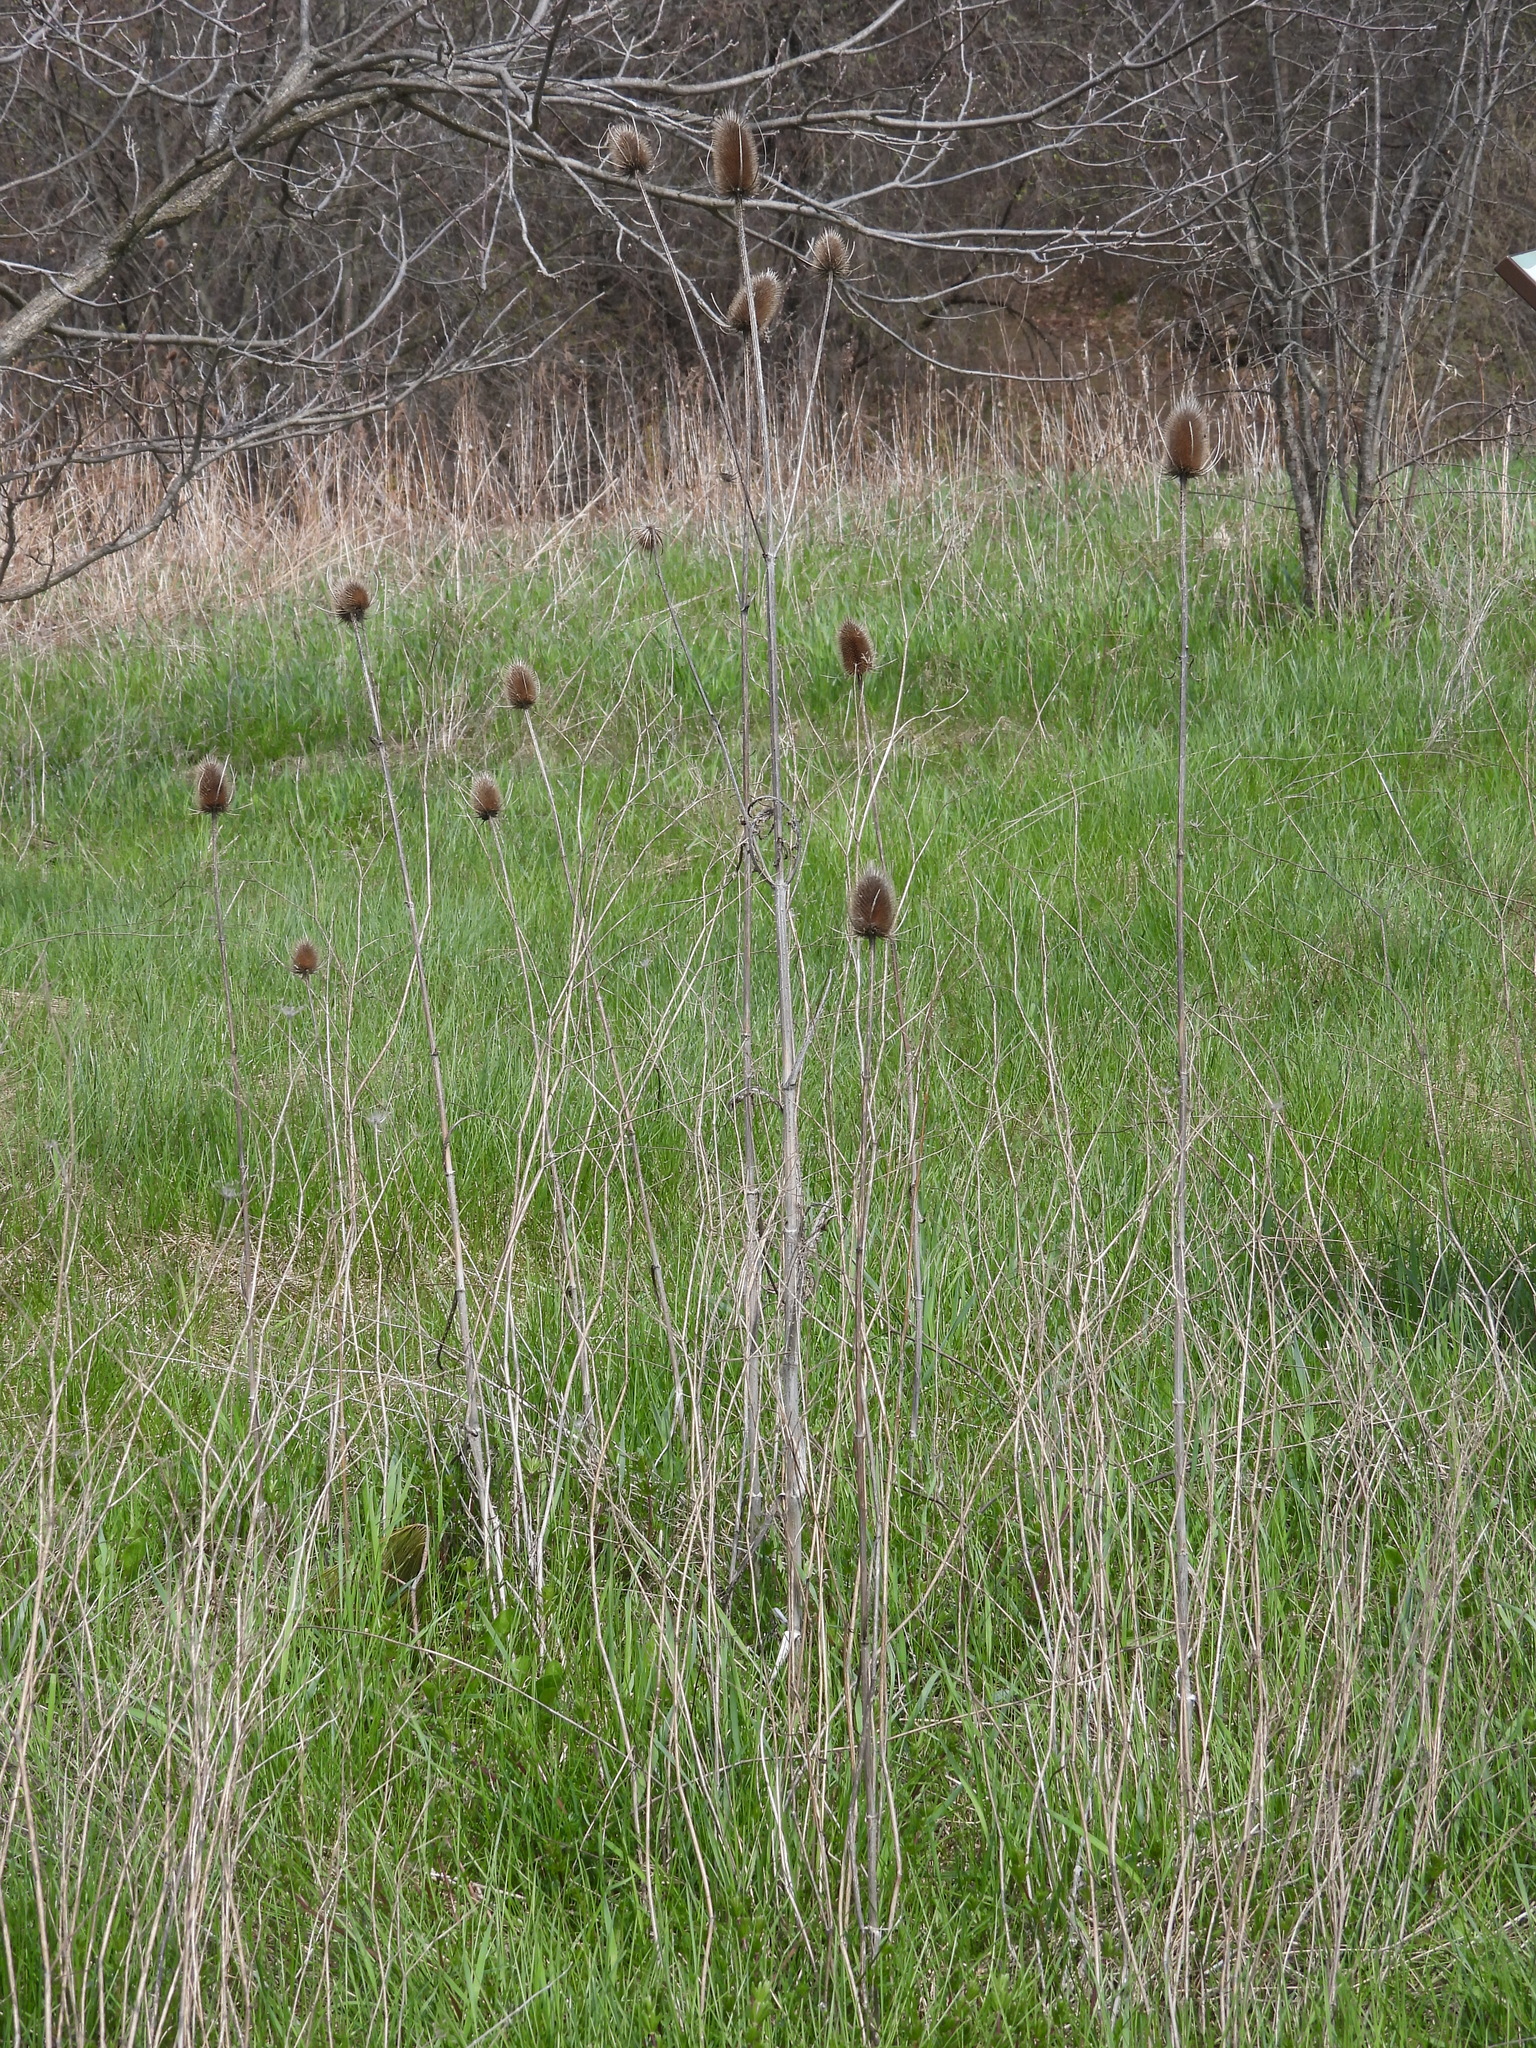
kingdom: Plantae
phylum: Tracheophyta
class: Magnoliopsida
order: Dipsacales
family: Caprifoliaceae
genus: Dipsacus
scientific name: Dipsacus fullonum
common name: Teasel
